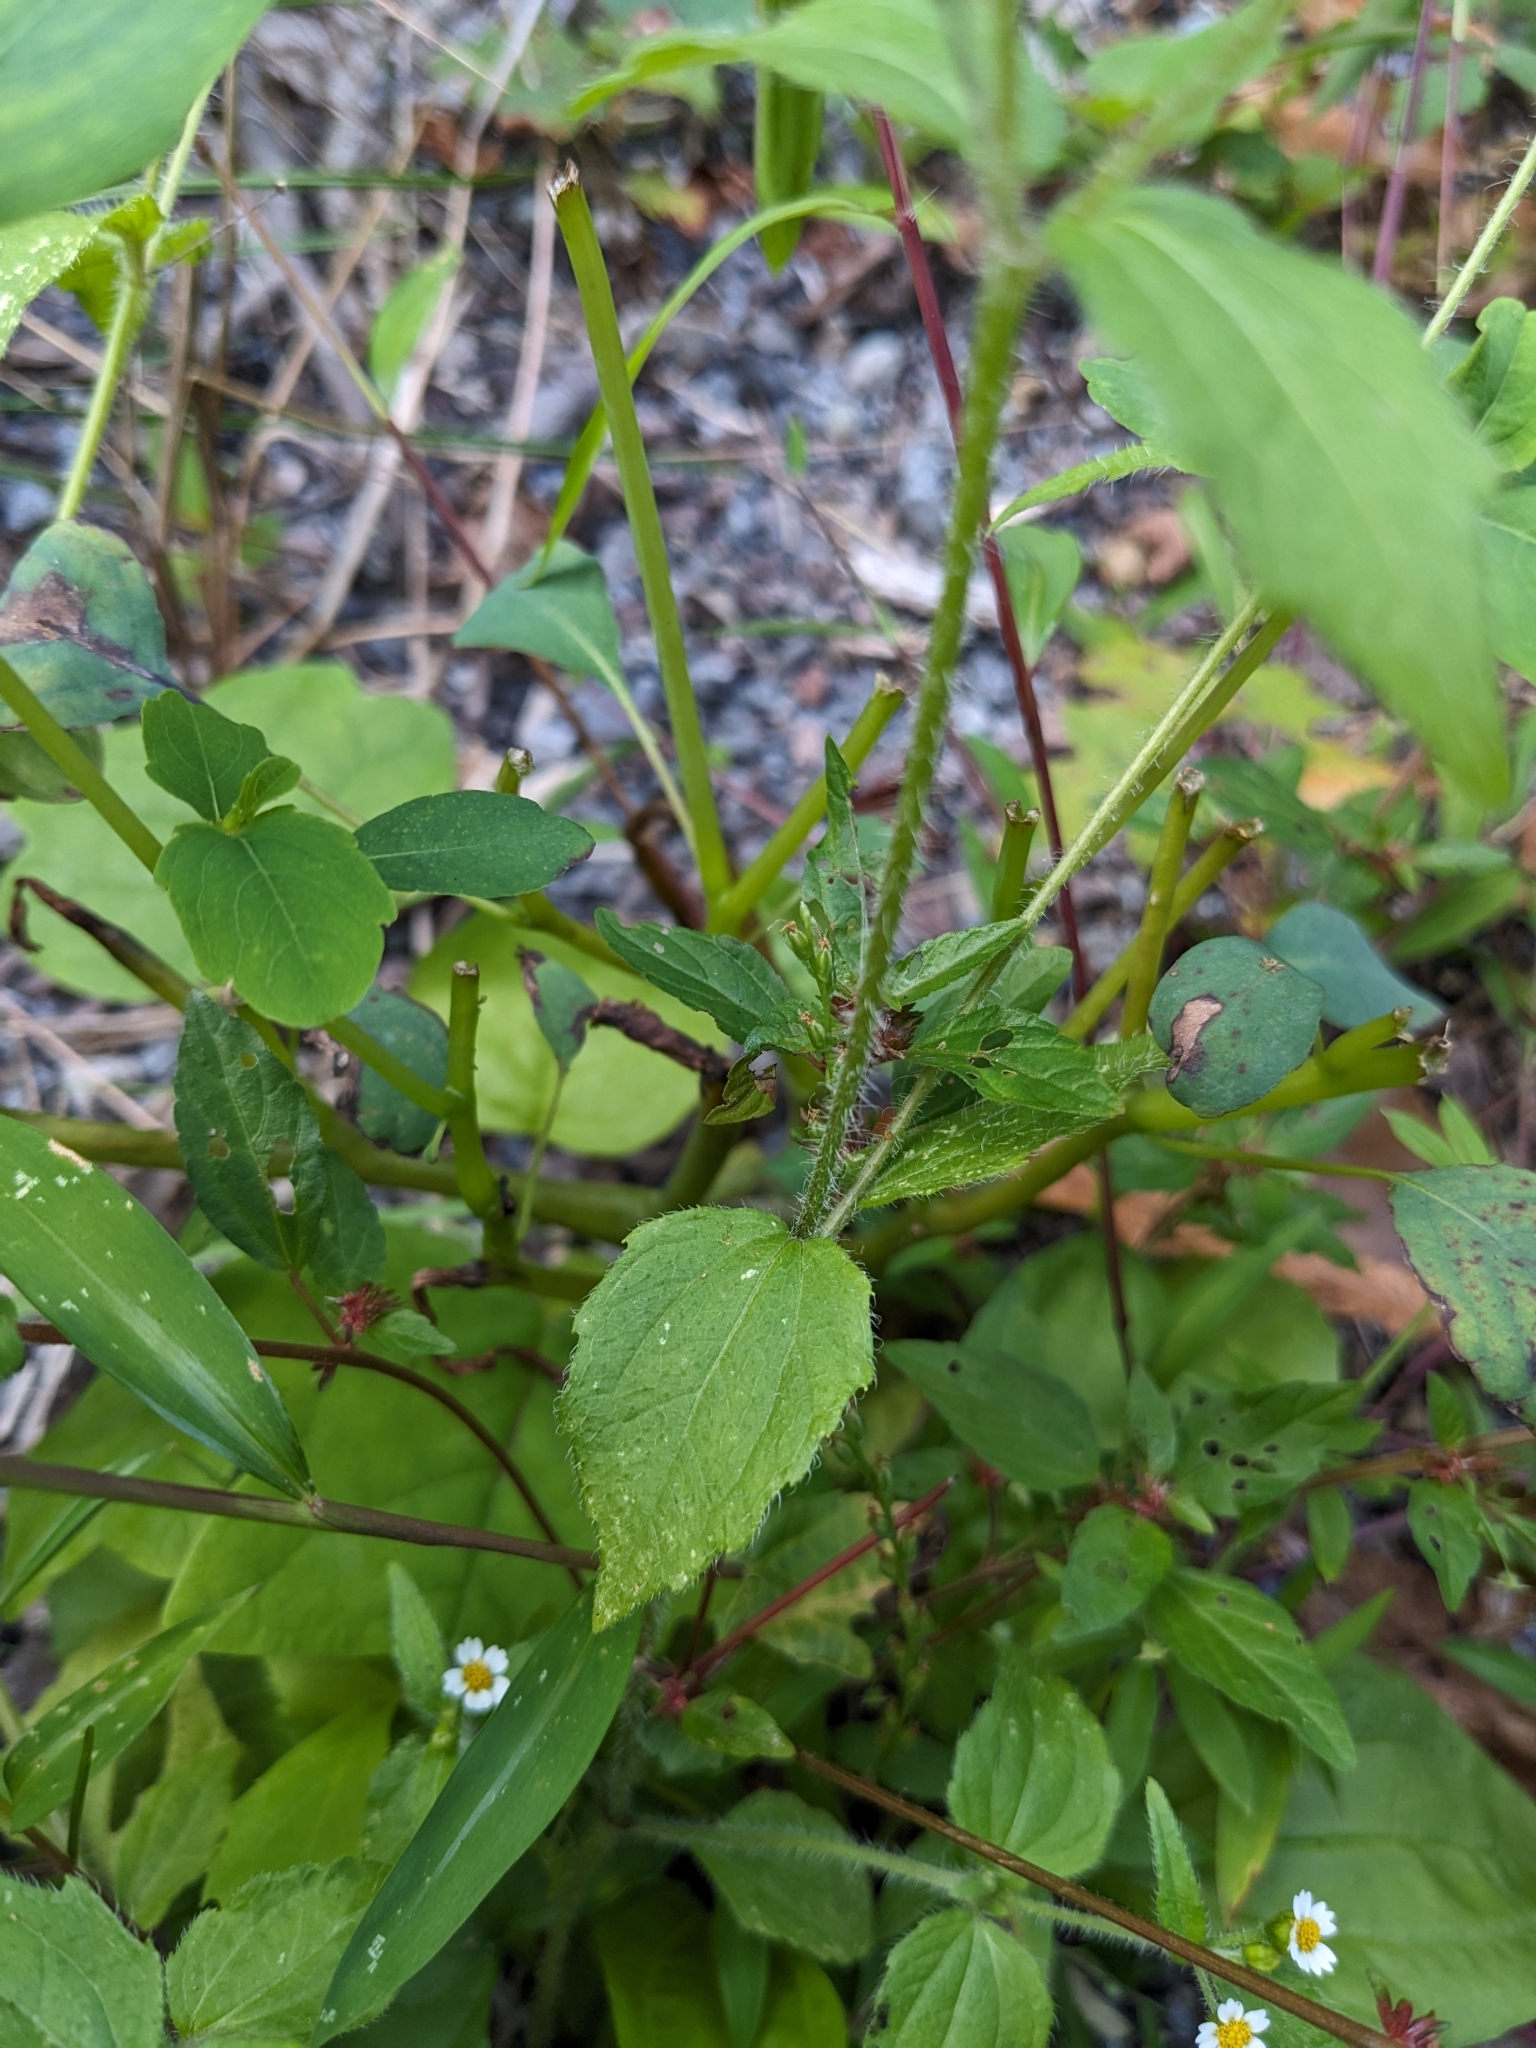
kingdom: Plantae
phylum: Tracheophyta
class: Magnoliopsida
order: Asterales
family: Asteraceae
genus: Galinsoga
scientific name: Galinsoga quadriradiata
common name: Shaggy soldier
